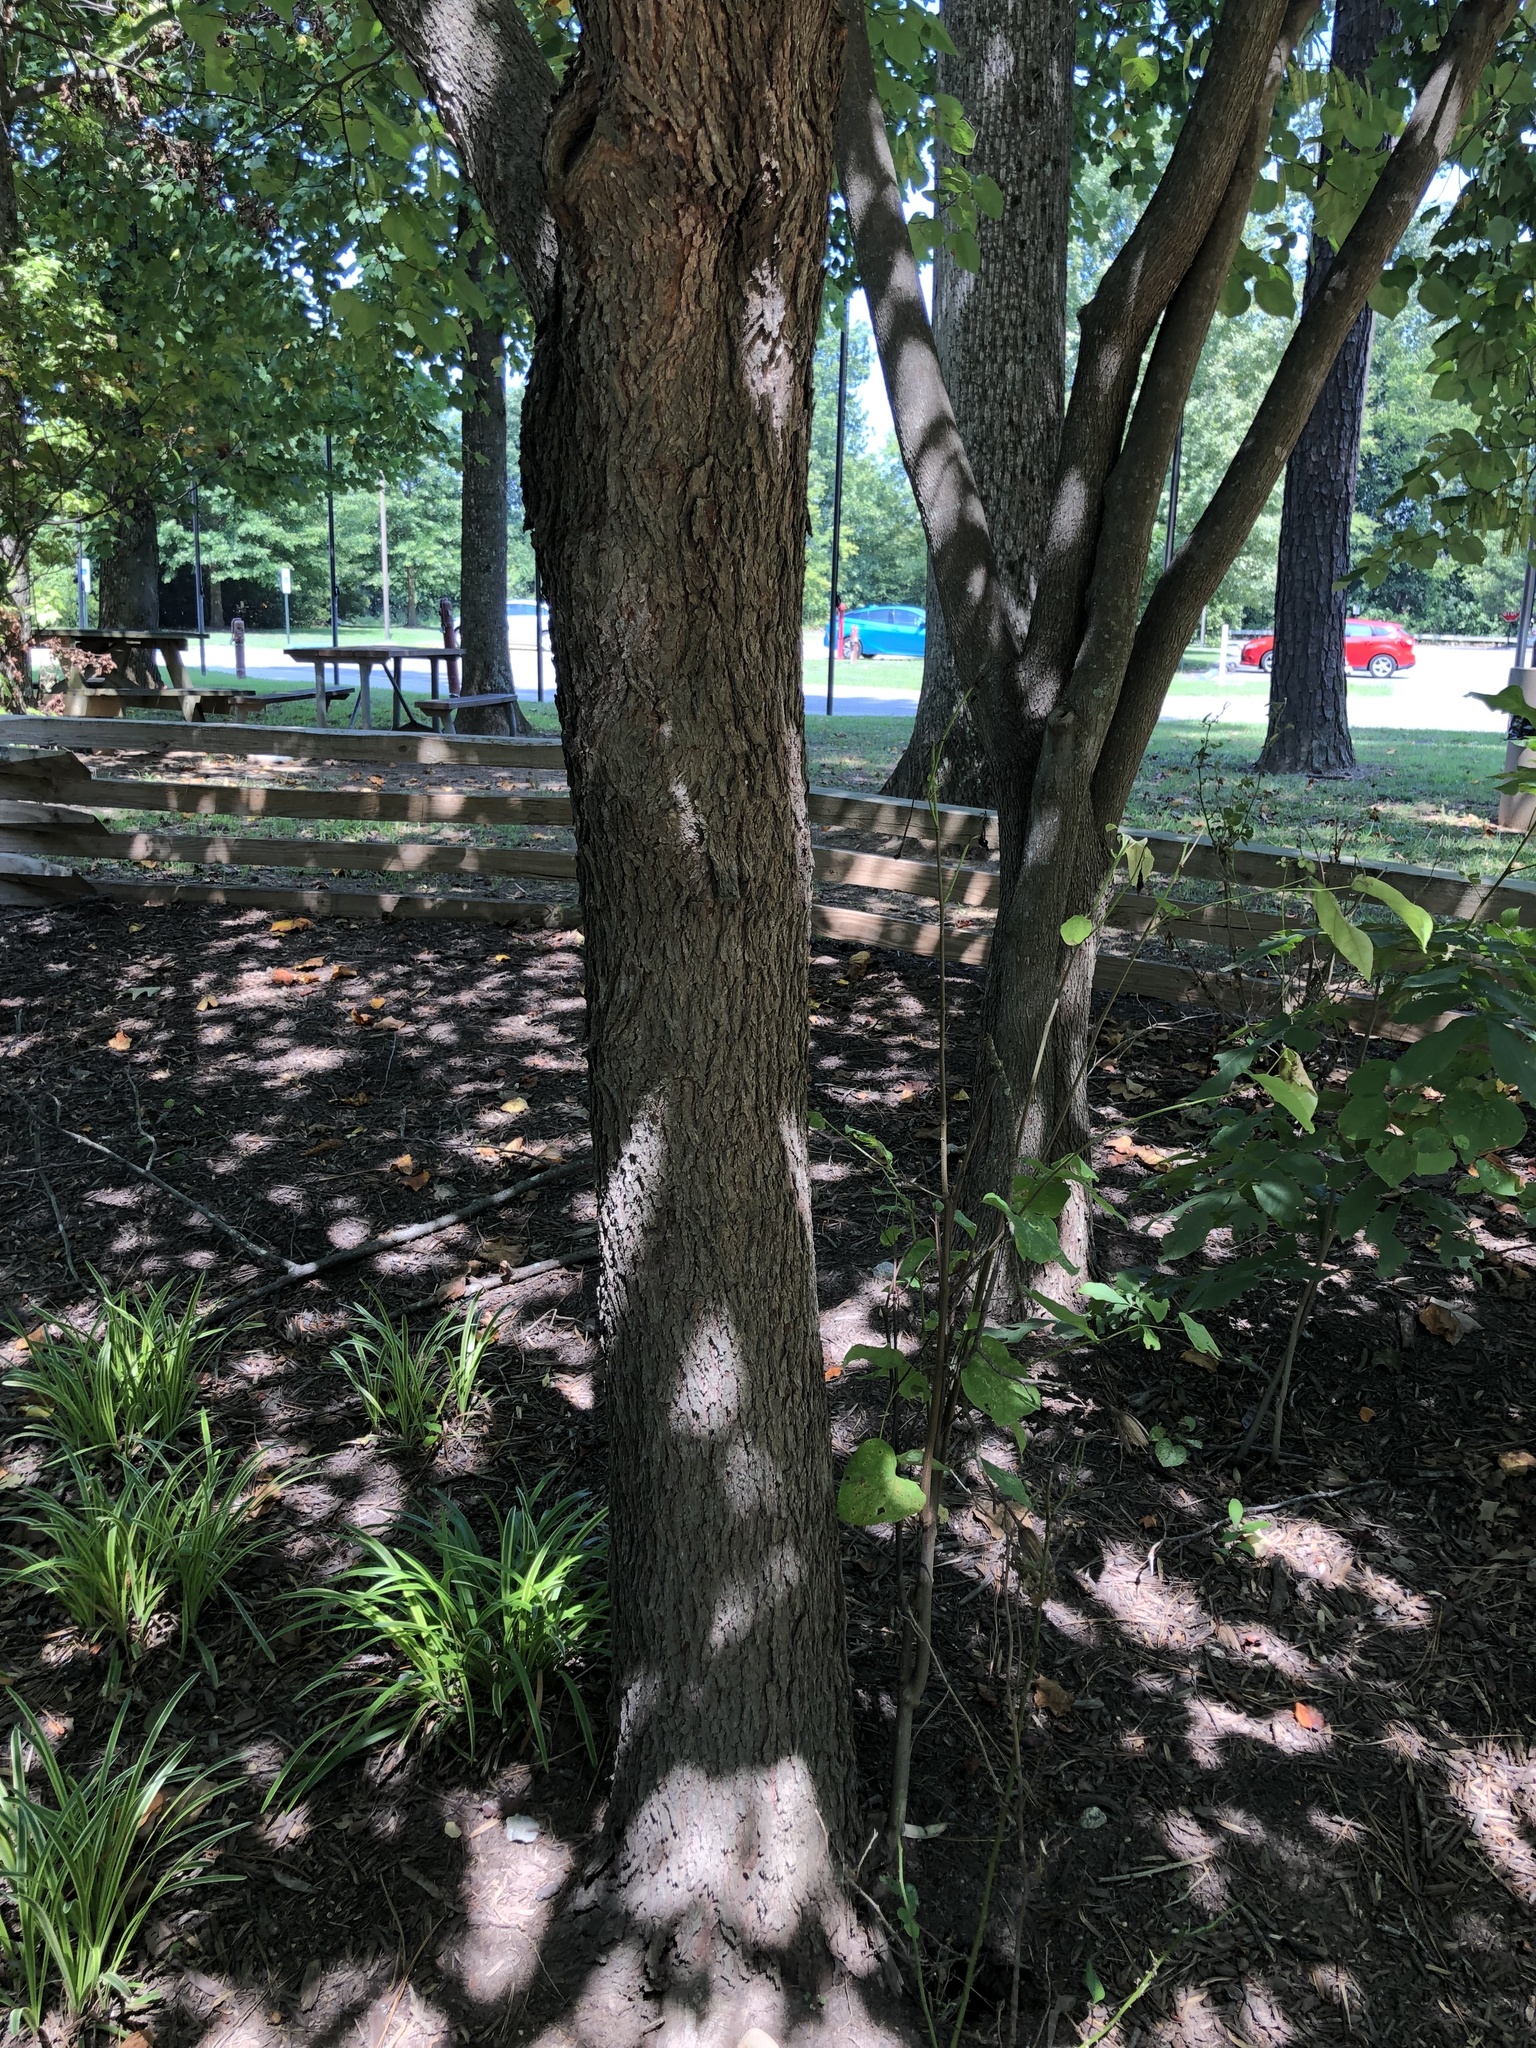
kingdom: Plantae
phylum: Tracheophyta
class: Magnoliopsida
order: Fabales
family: Fabaceae
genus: Cercis
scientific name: Cercis canadensis
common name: Eastern redbud
